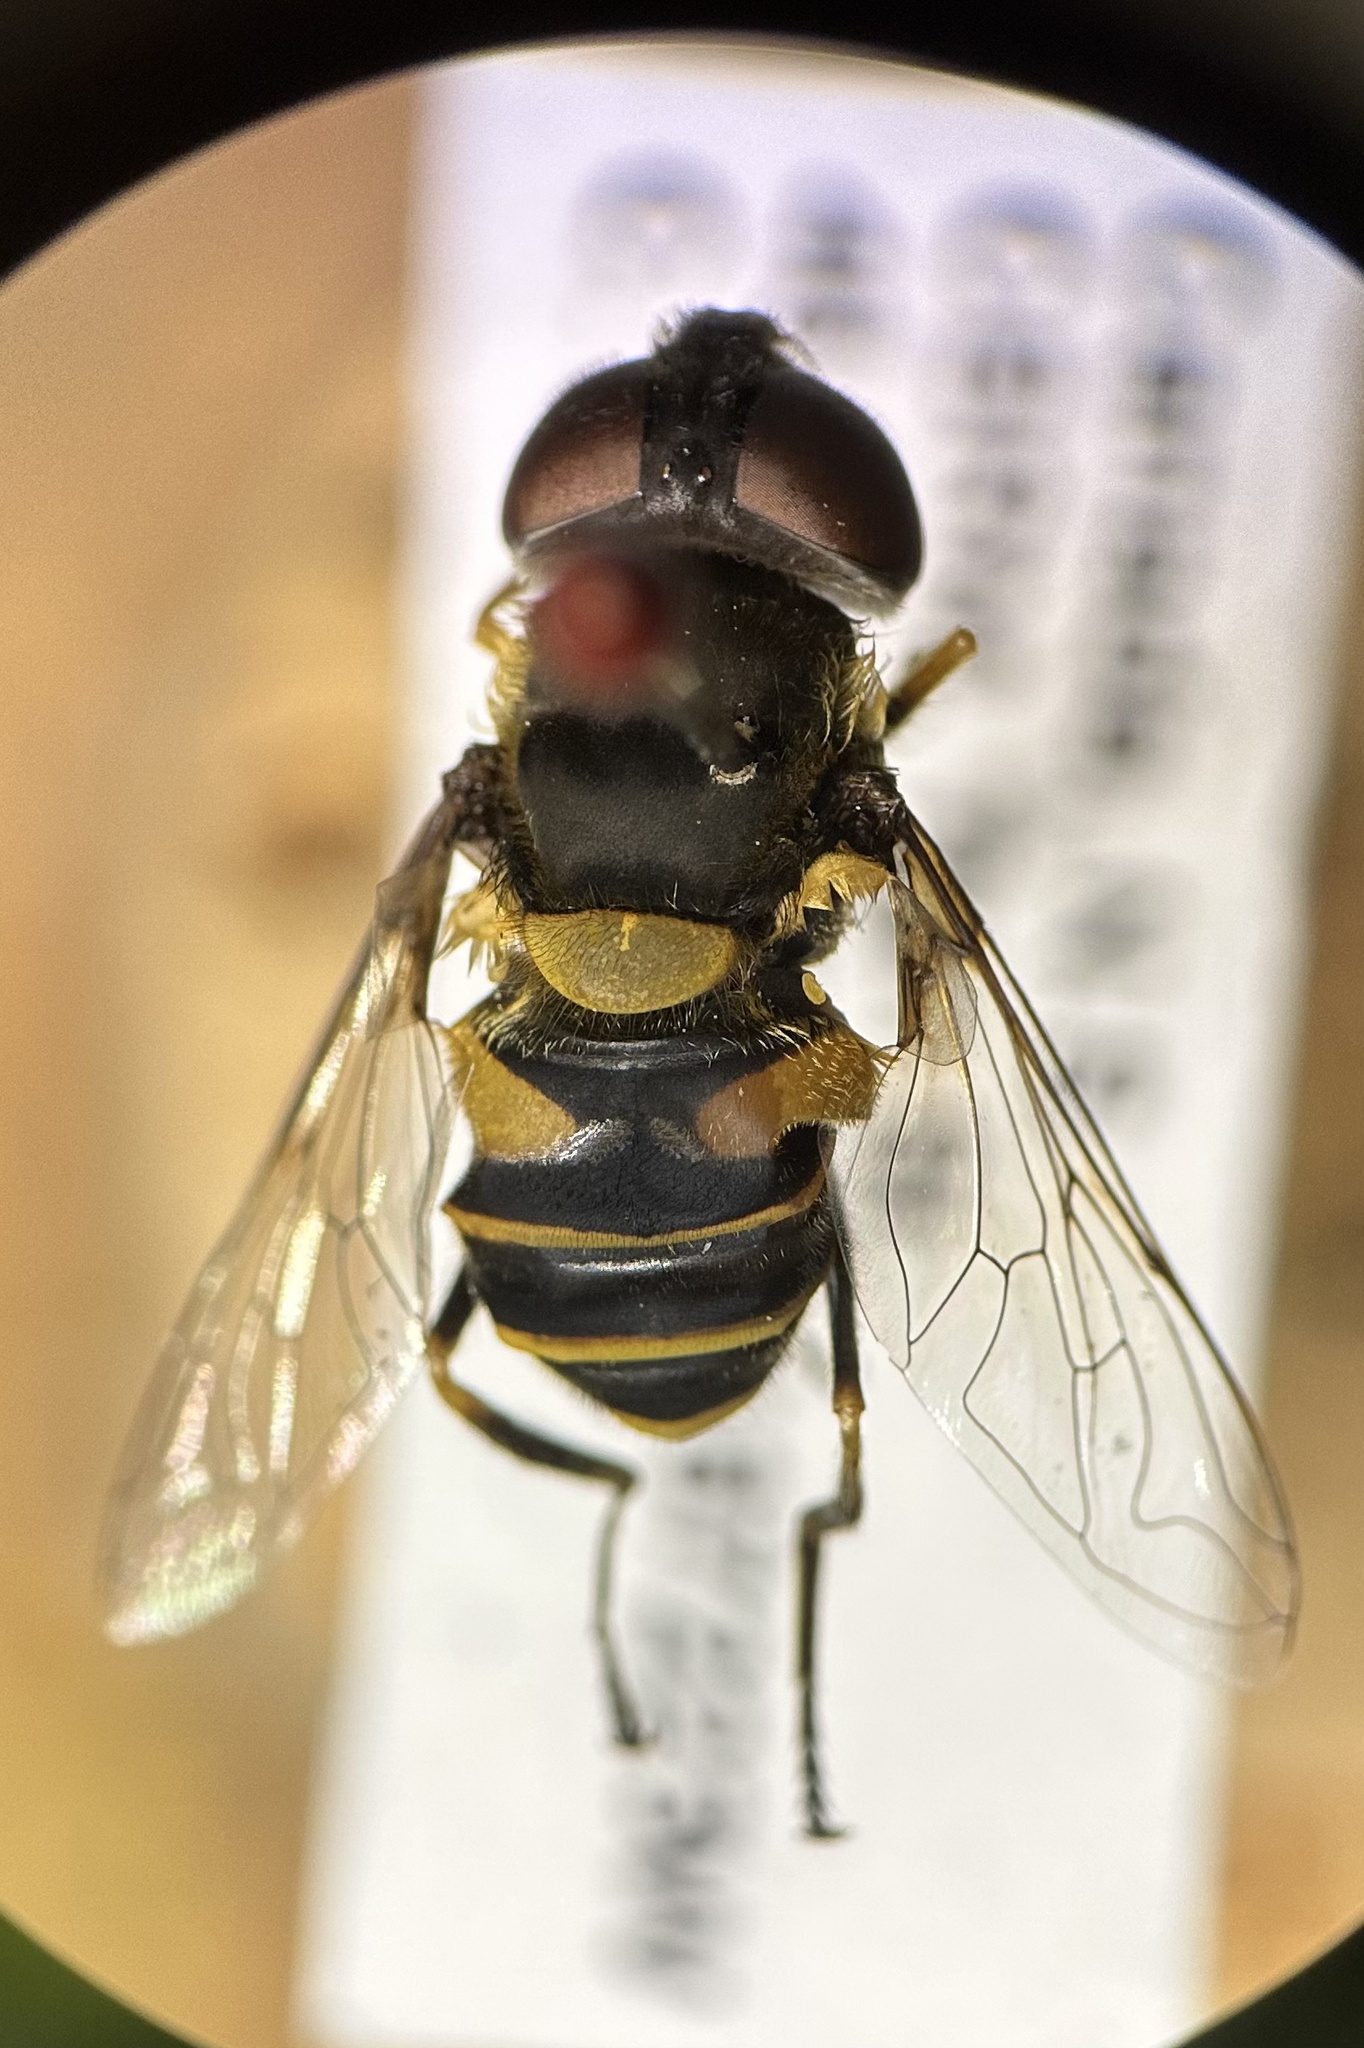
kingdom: Animalia
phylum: Arthropoda
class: Insecta
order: Diptera
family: Syrphidae
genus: Eristalis
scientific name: Eristalis transversa
